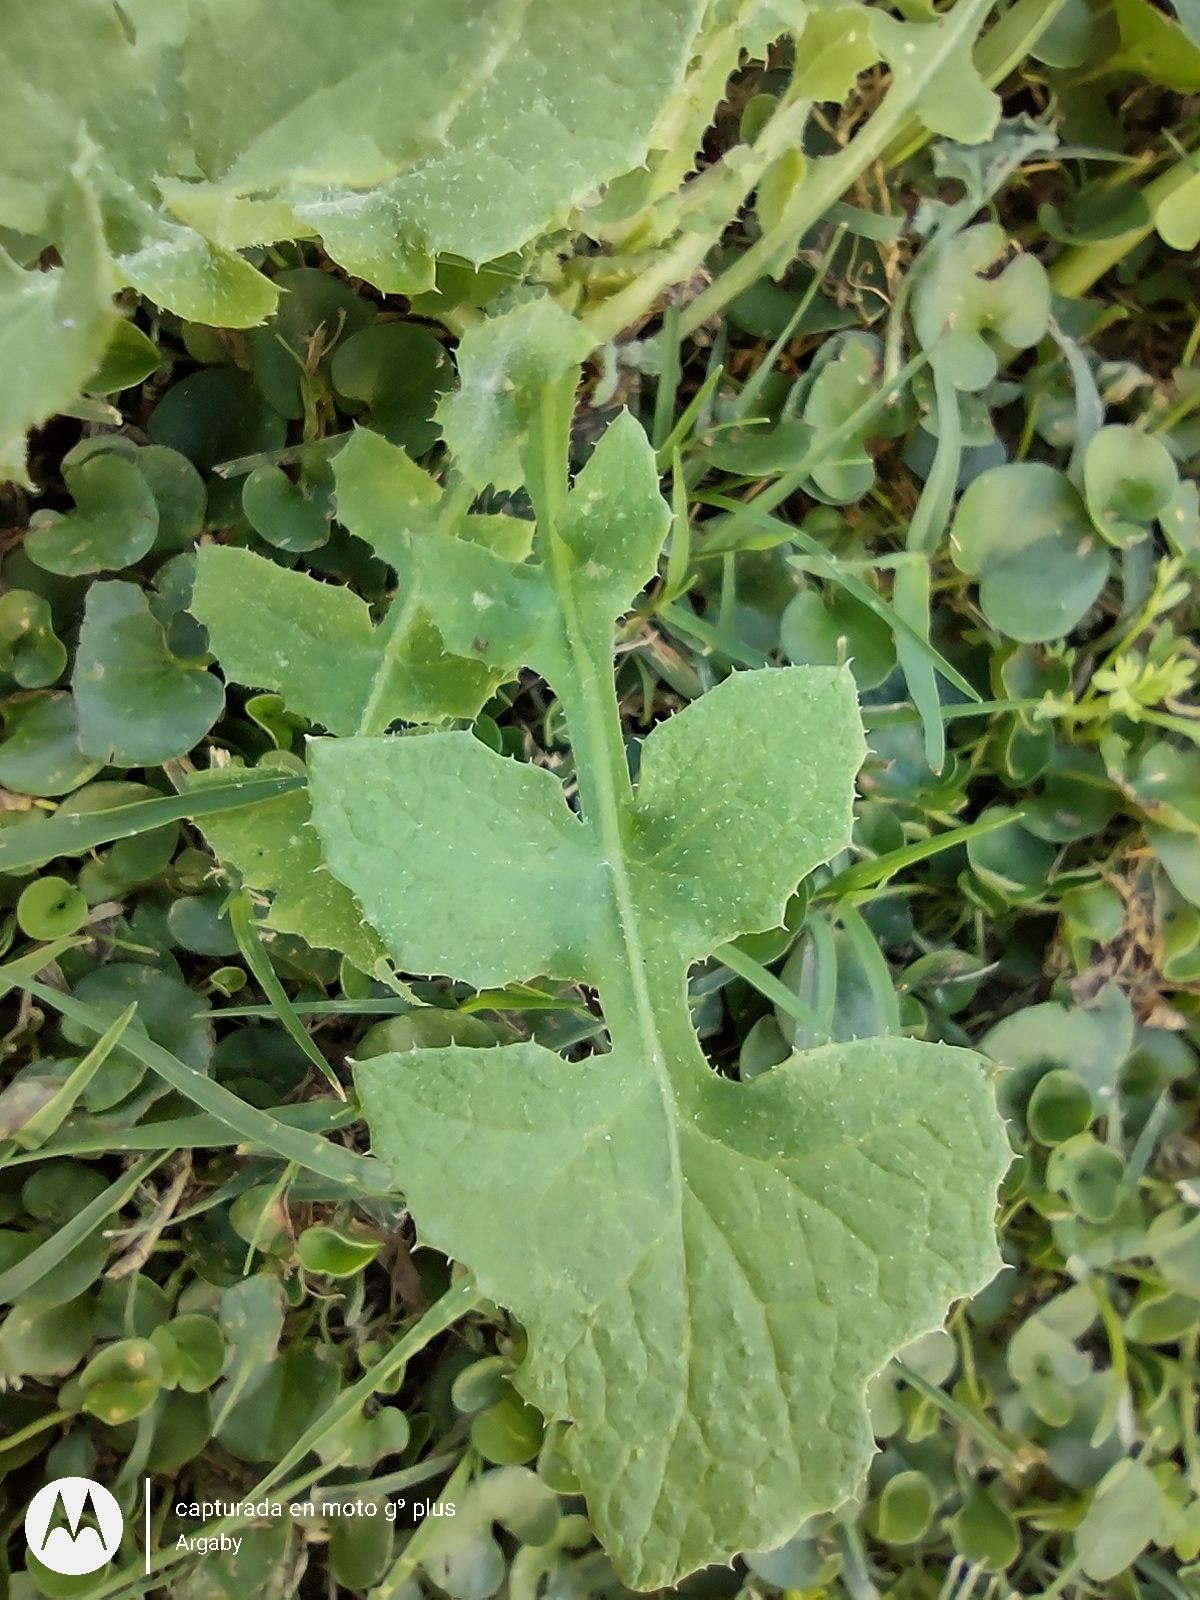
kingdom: Plantae
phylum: Tracheophyta
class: Magnoliopsida
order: Asterales
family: Asteraceae
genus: Sonchus
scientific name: Sonchus oleraceus
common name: Common sowthistle
